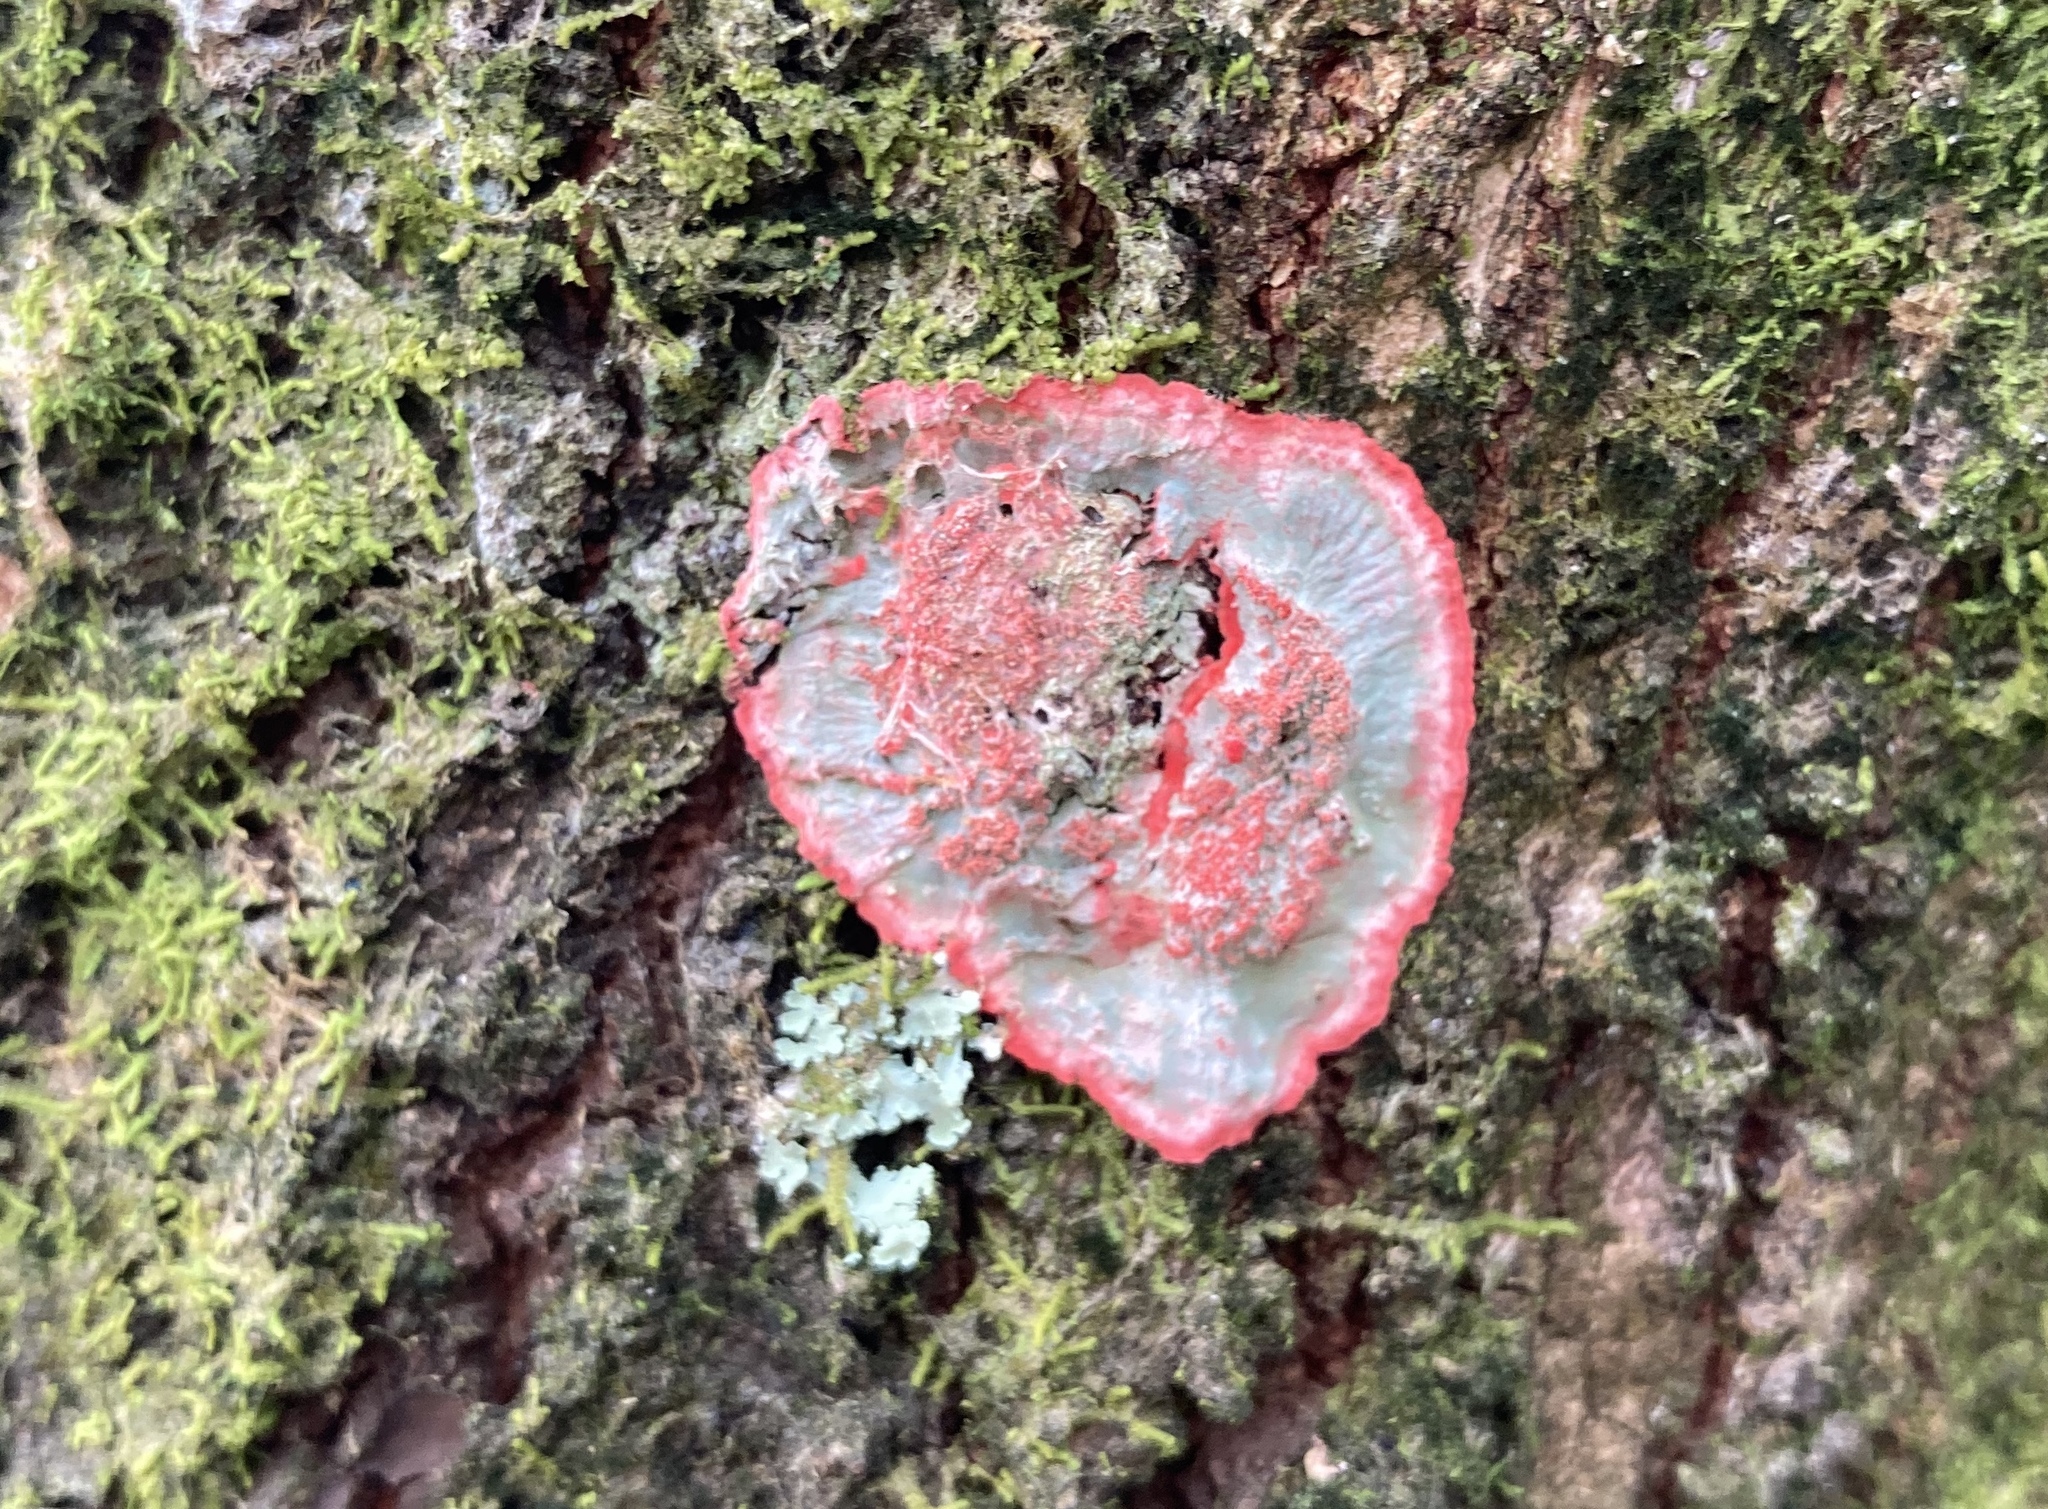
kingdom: Fungi
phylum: Ascomycota
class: Arthoniomycetes
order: Arthoniales
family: Arthoniaceae
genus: Herpothallon
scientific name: Herpothallon rubrocinctum
